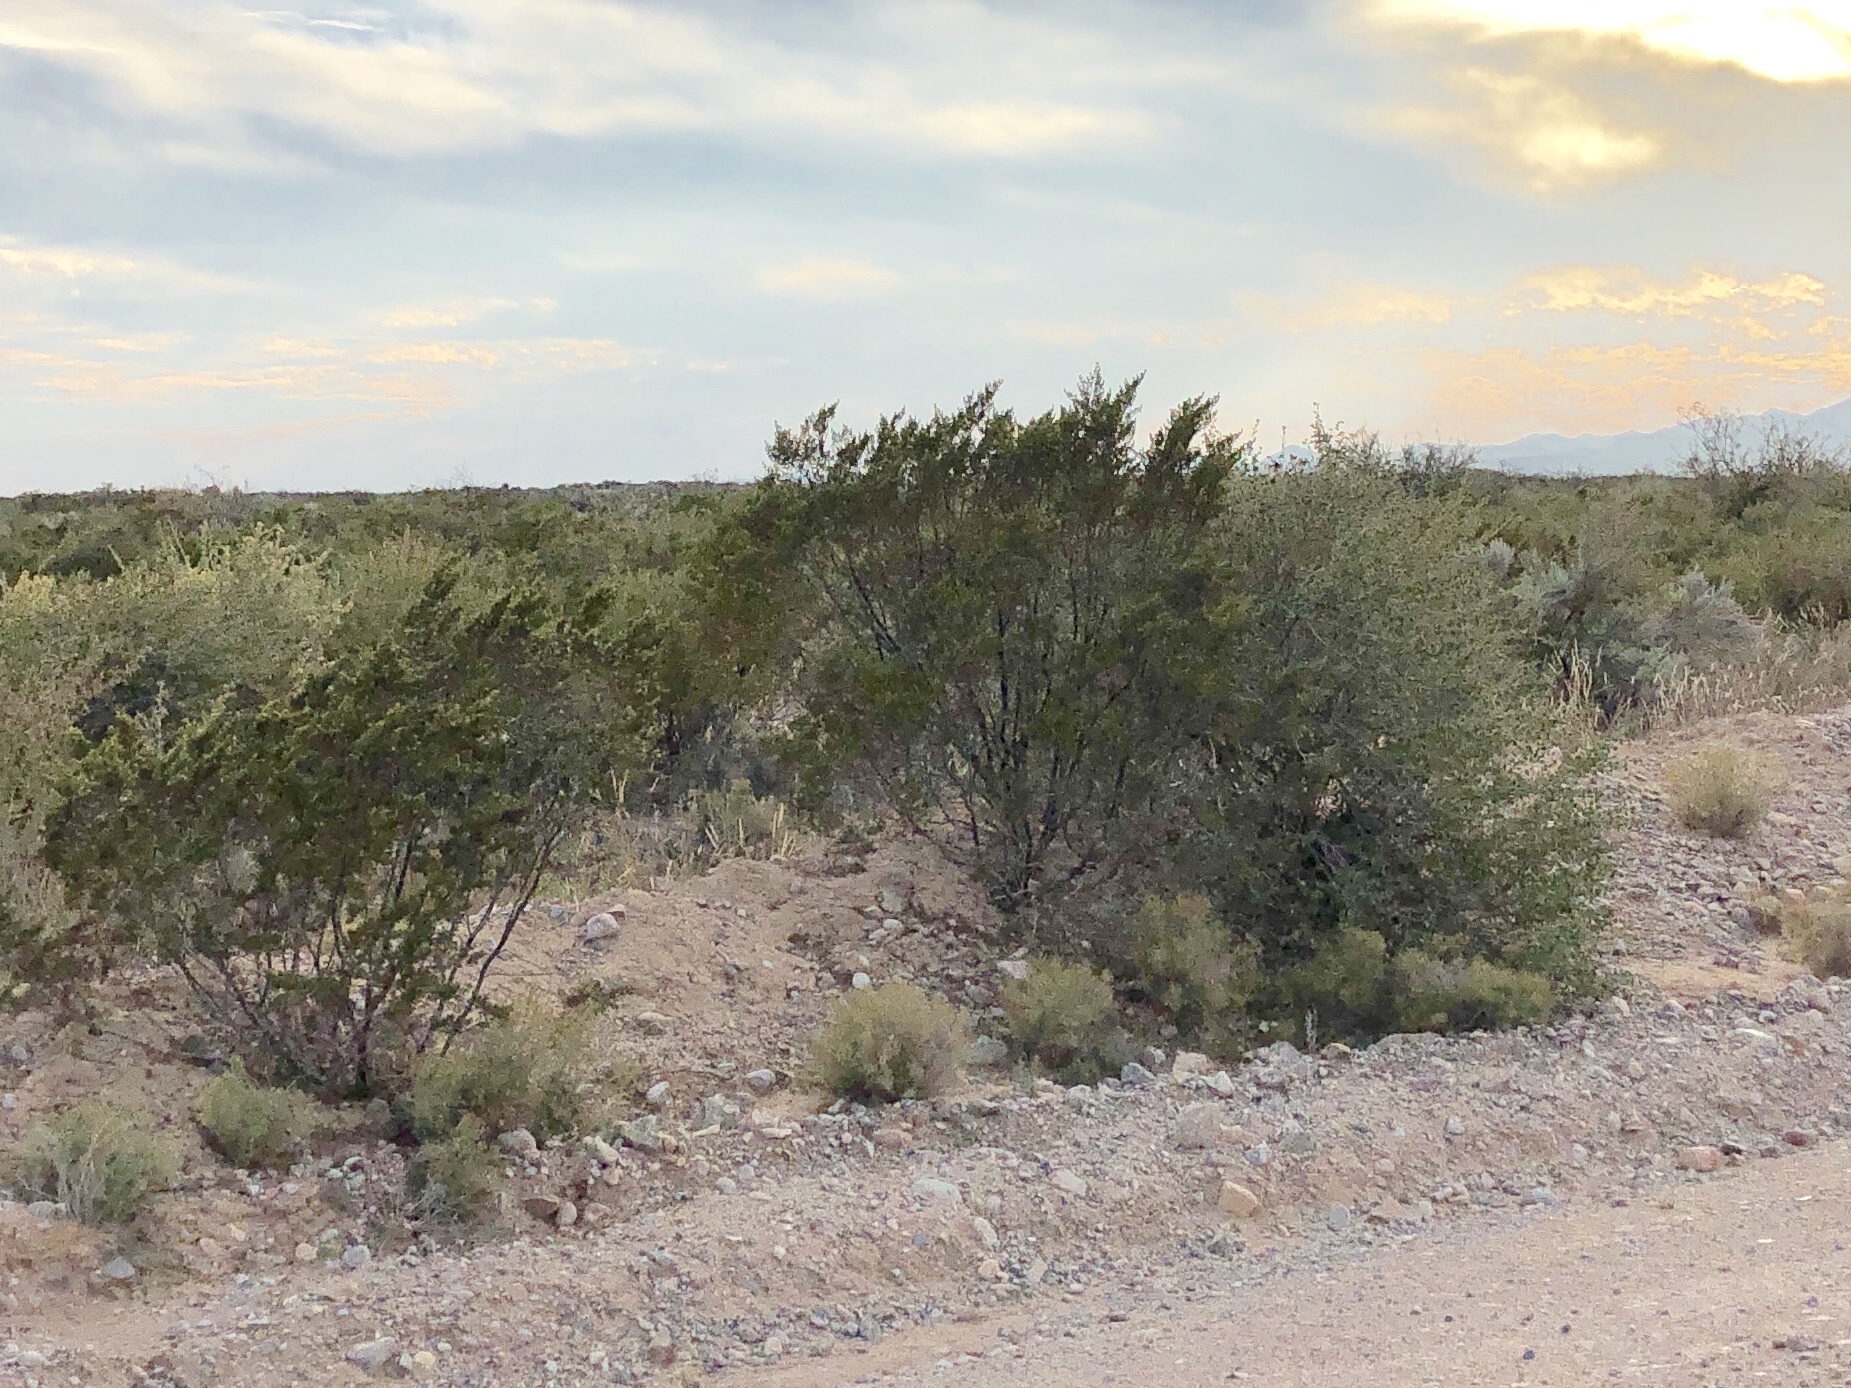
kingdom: Plantae
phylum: Tracheophyta
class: Magnoliopsida
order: Zygophyllales
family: Zygophyllaceae
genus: Larrea
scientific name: Larrea tridentata
